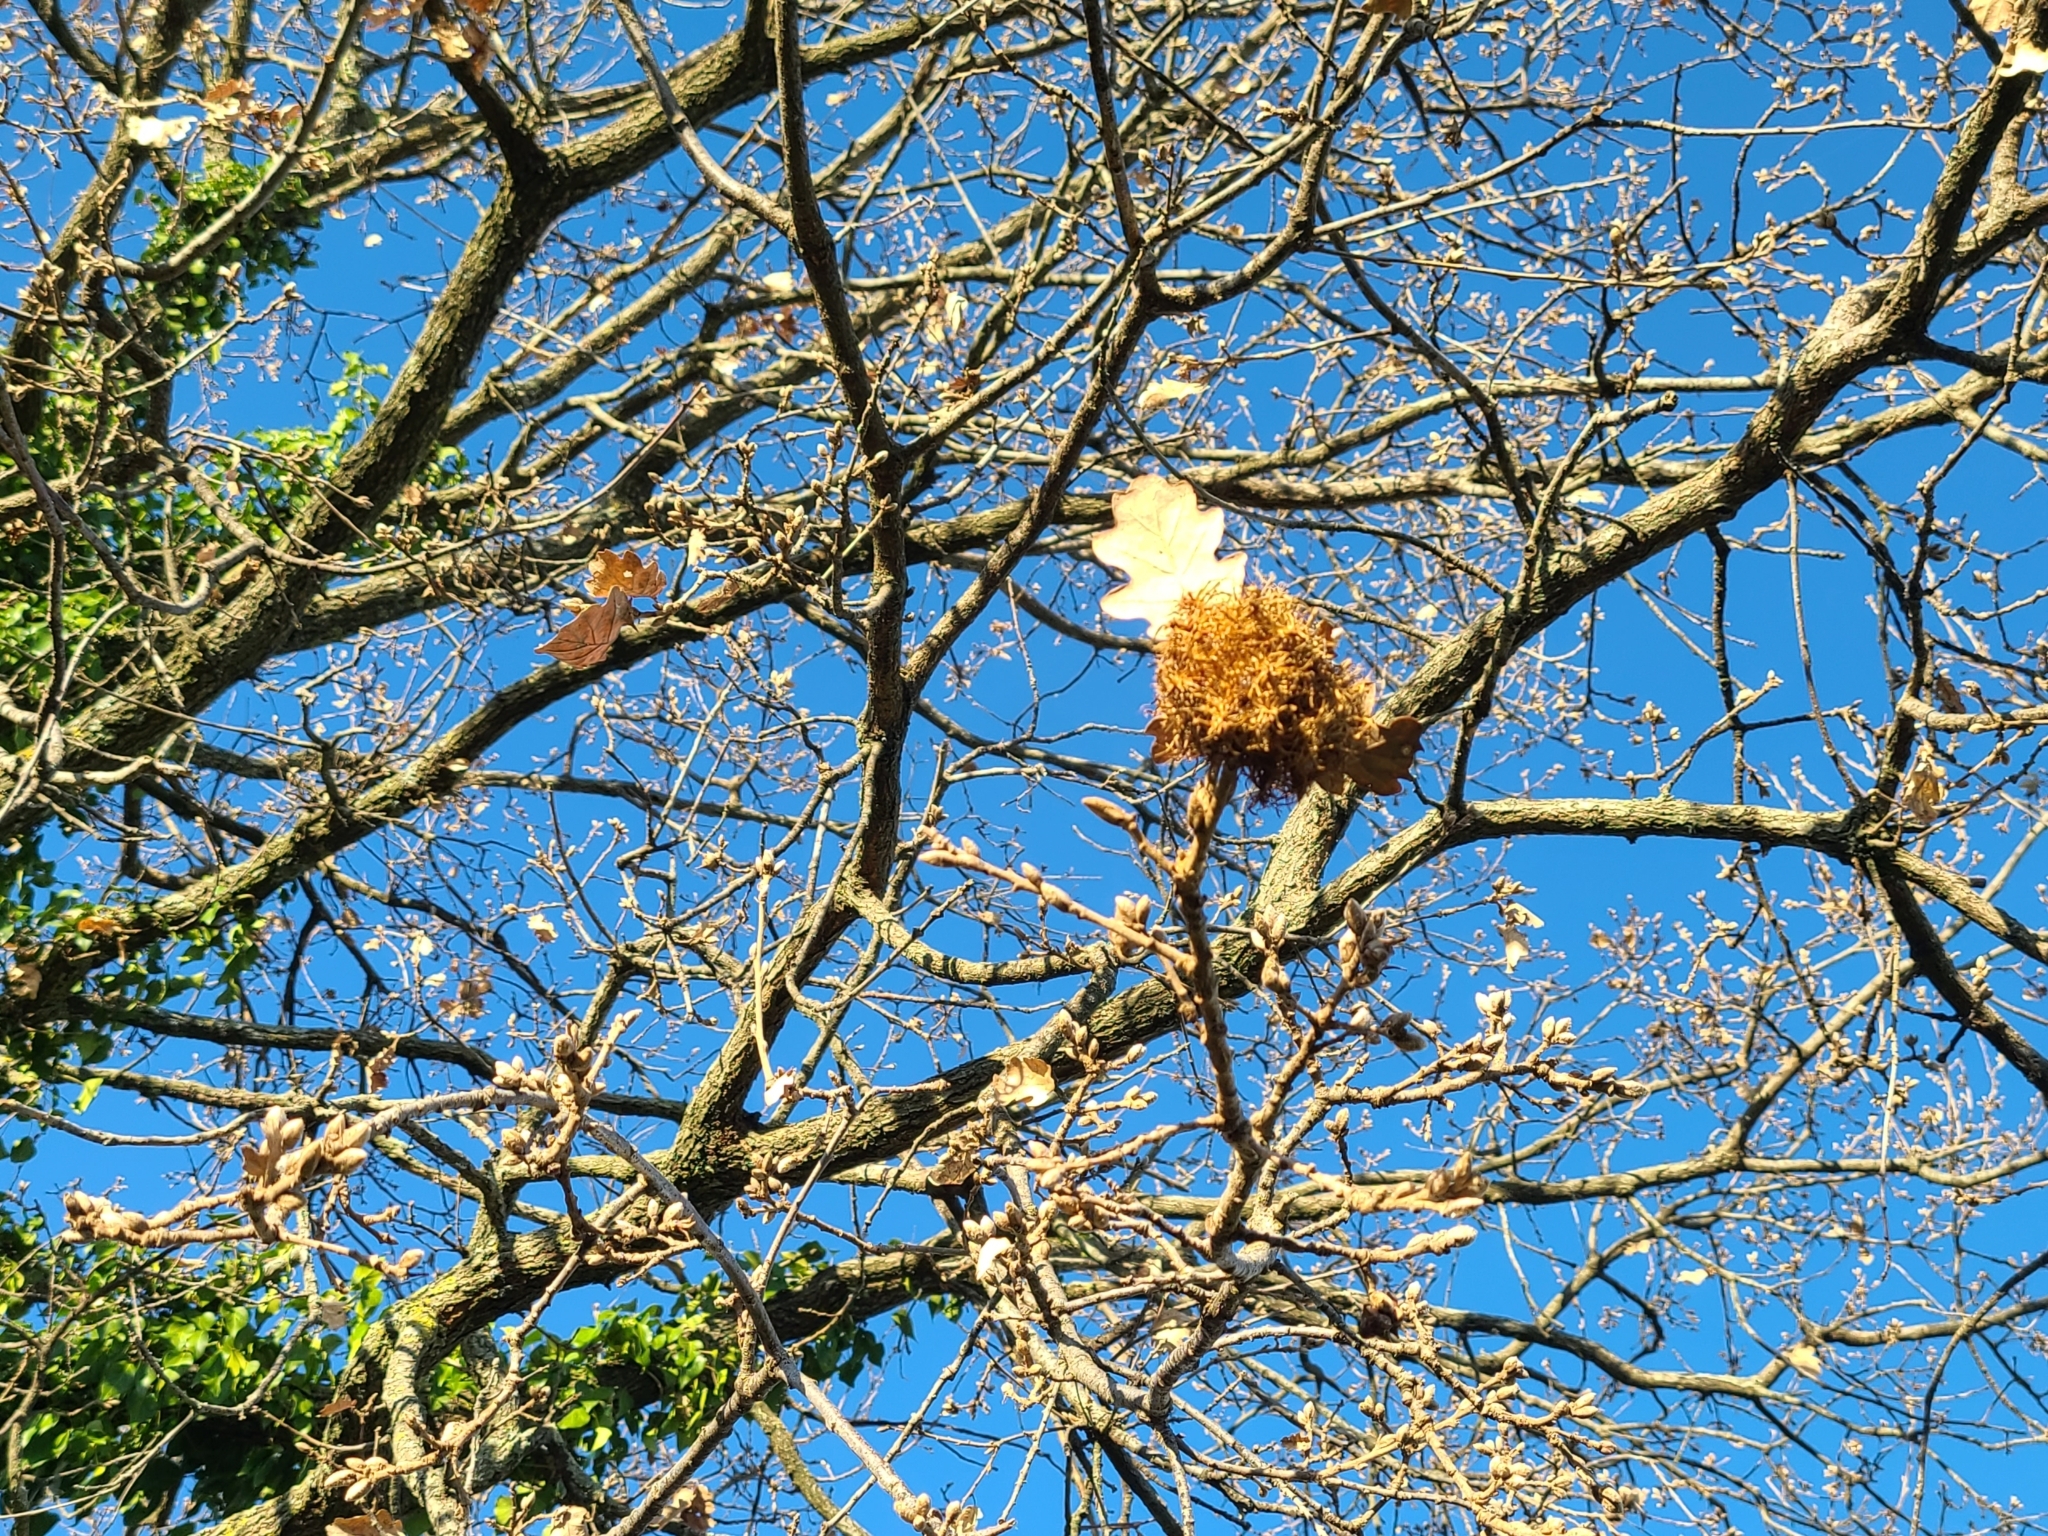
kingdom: Animalia
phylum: Arthropoda
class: Insecta
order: Hymenoptera
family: Cynipidae
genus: Andricus
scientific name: Andricus caputmedusae
